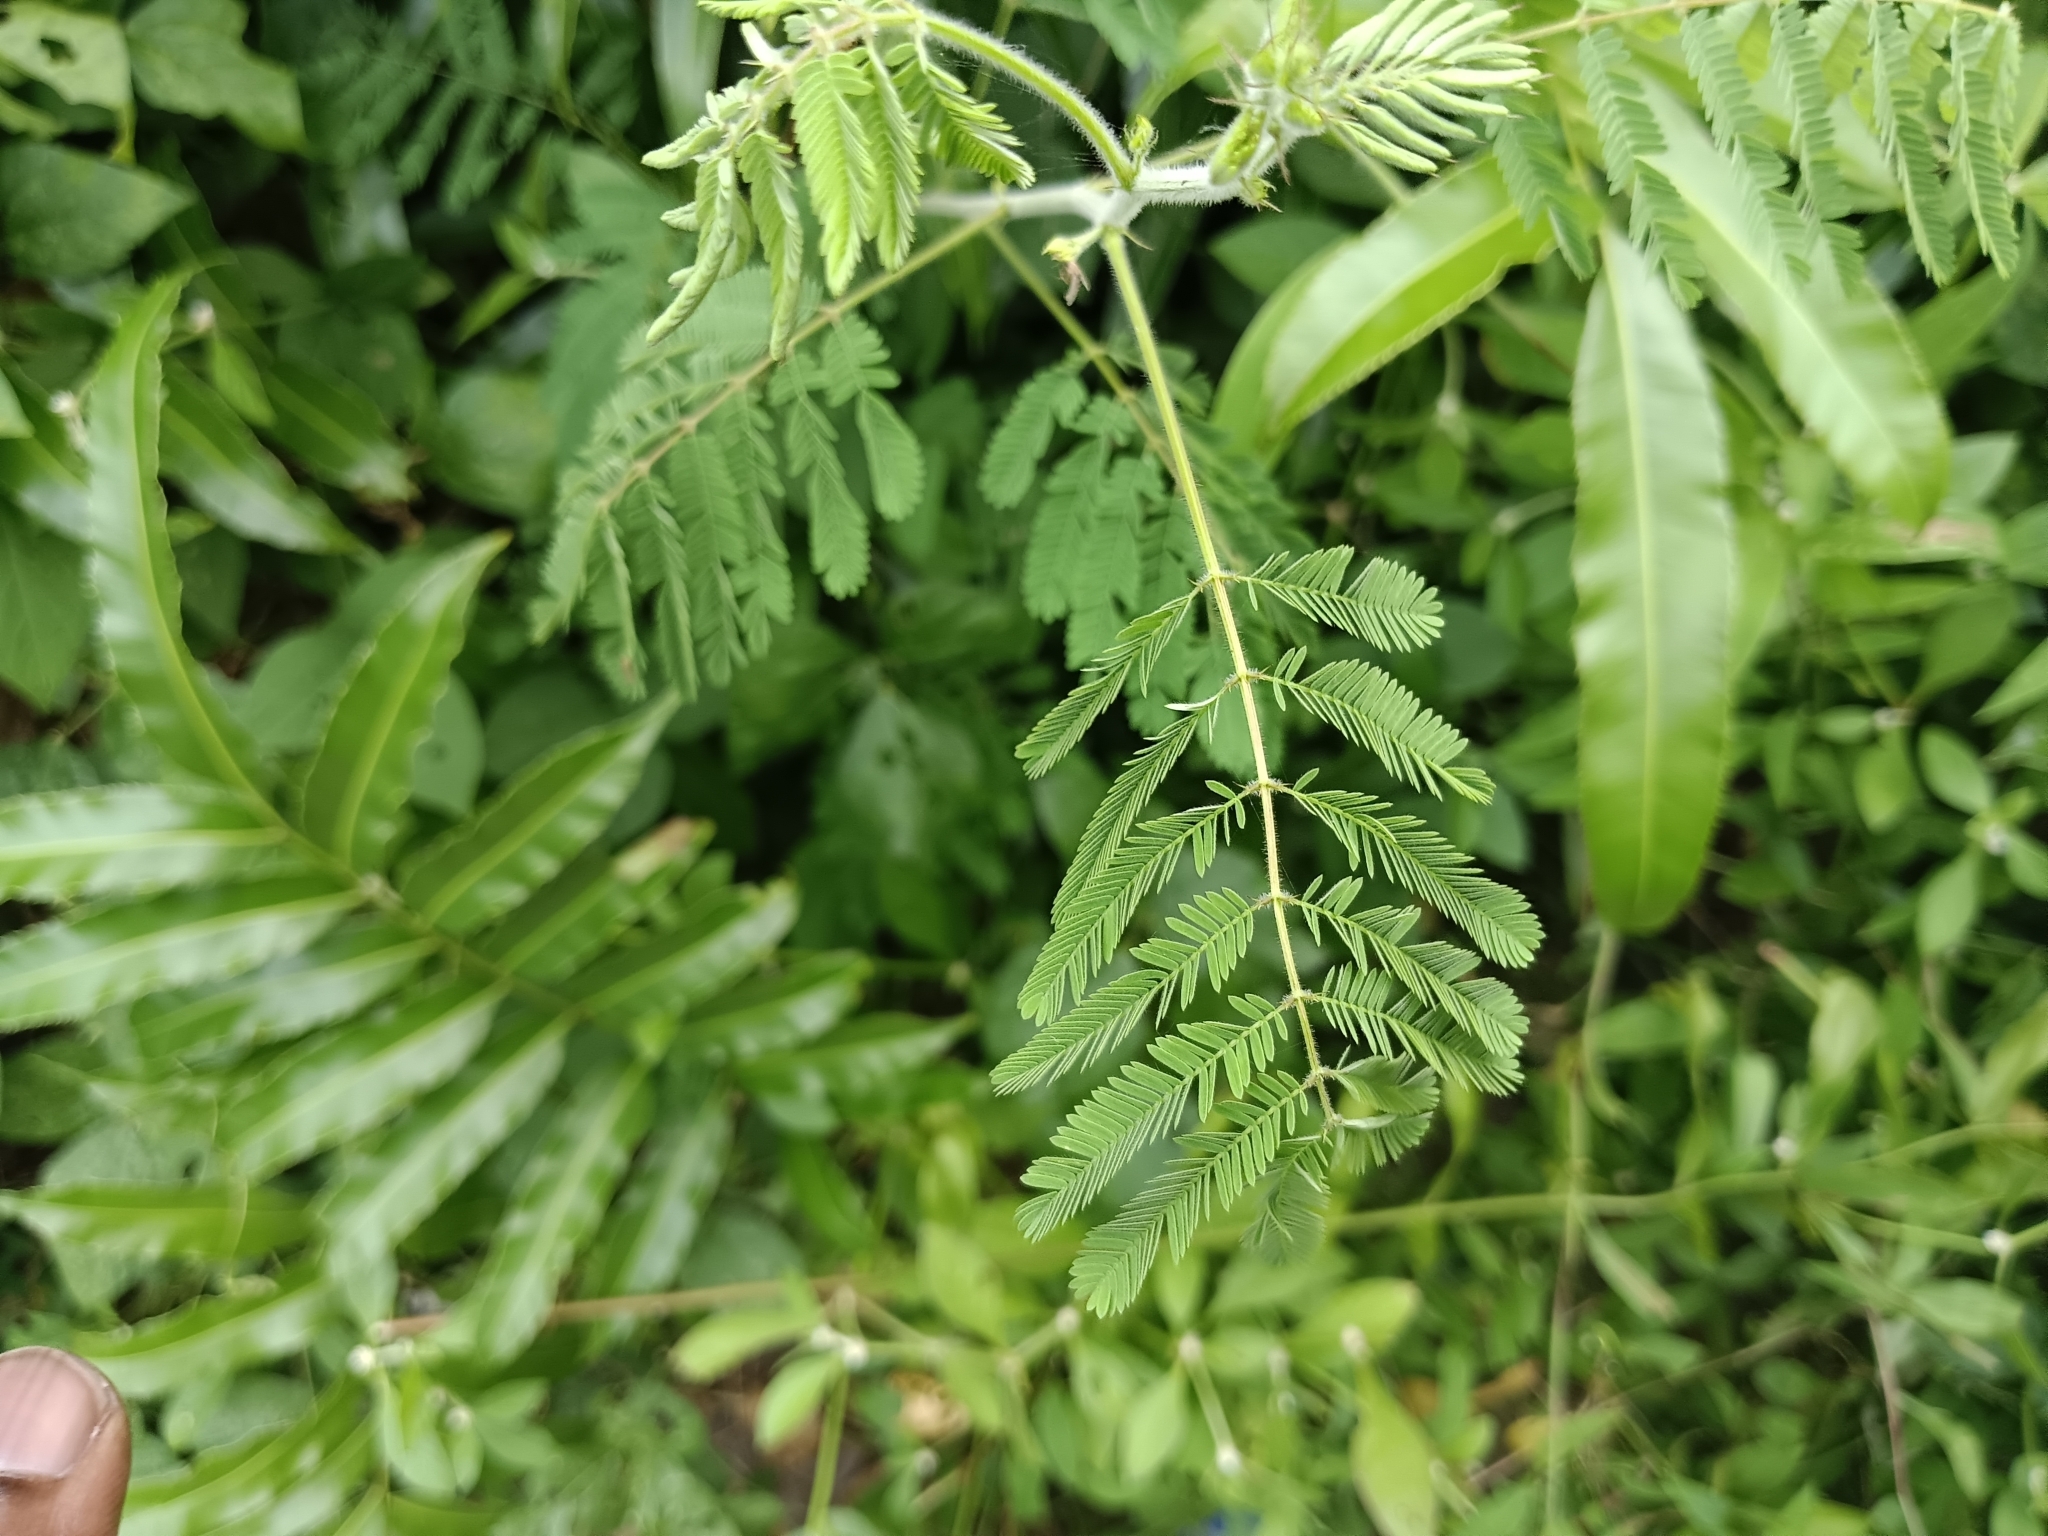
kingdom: Plantae
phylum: Tracheophyta
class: Magnoliopsida
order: Fabales
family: Fabaceae
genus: Mimosa
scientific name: Mimosa diplotricha
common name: Giant sensitive-plant
